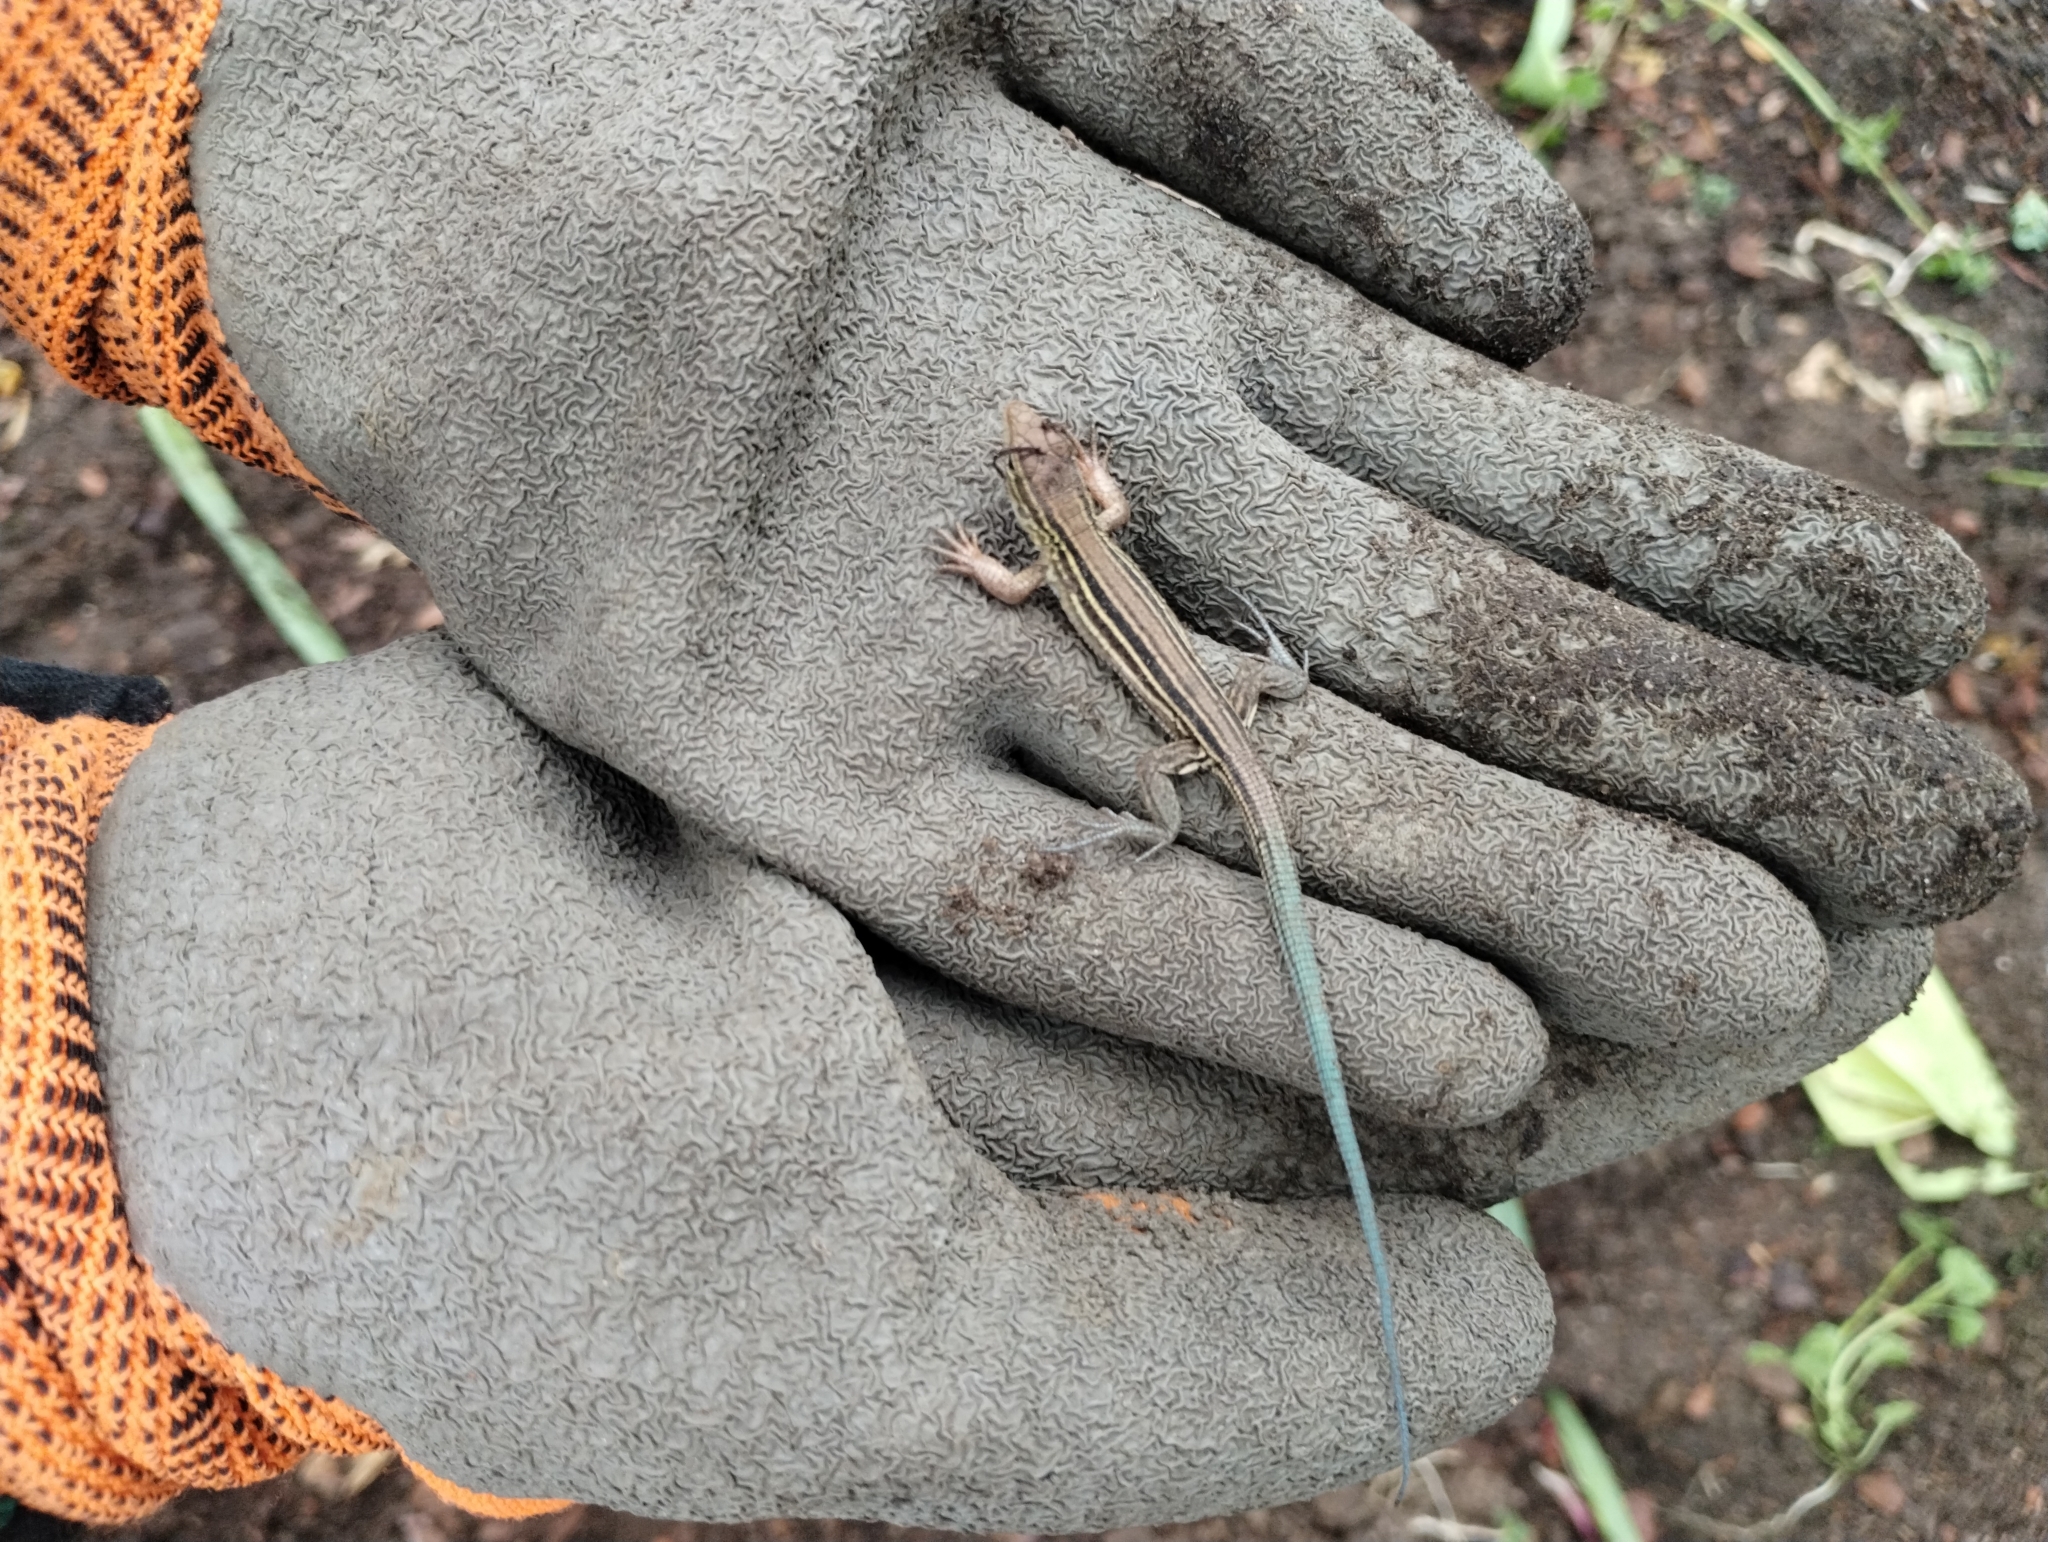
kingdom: Animalia
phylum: Chordata
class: Squamata
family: Teiidae
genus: Aspidoscelis
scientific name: Aspidoscelis sexlineatus
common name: Six-lined racerunner
